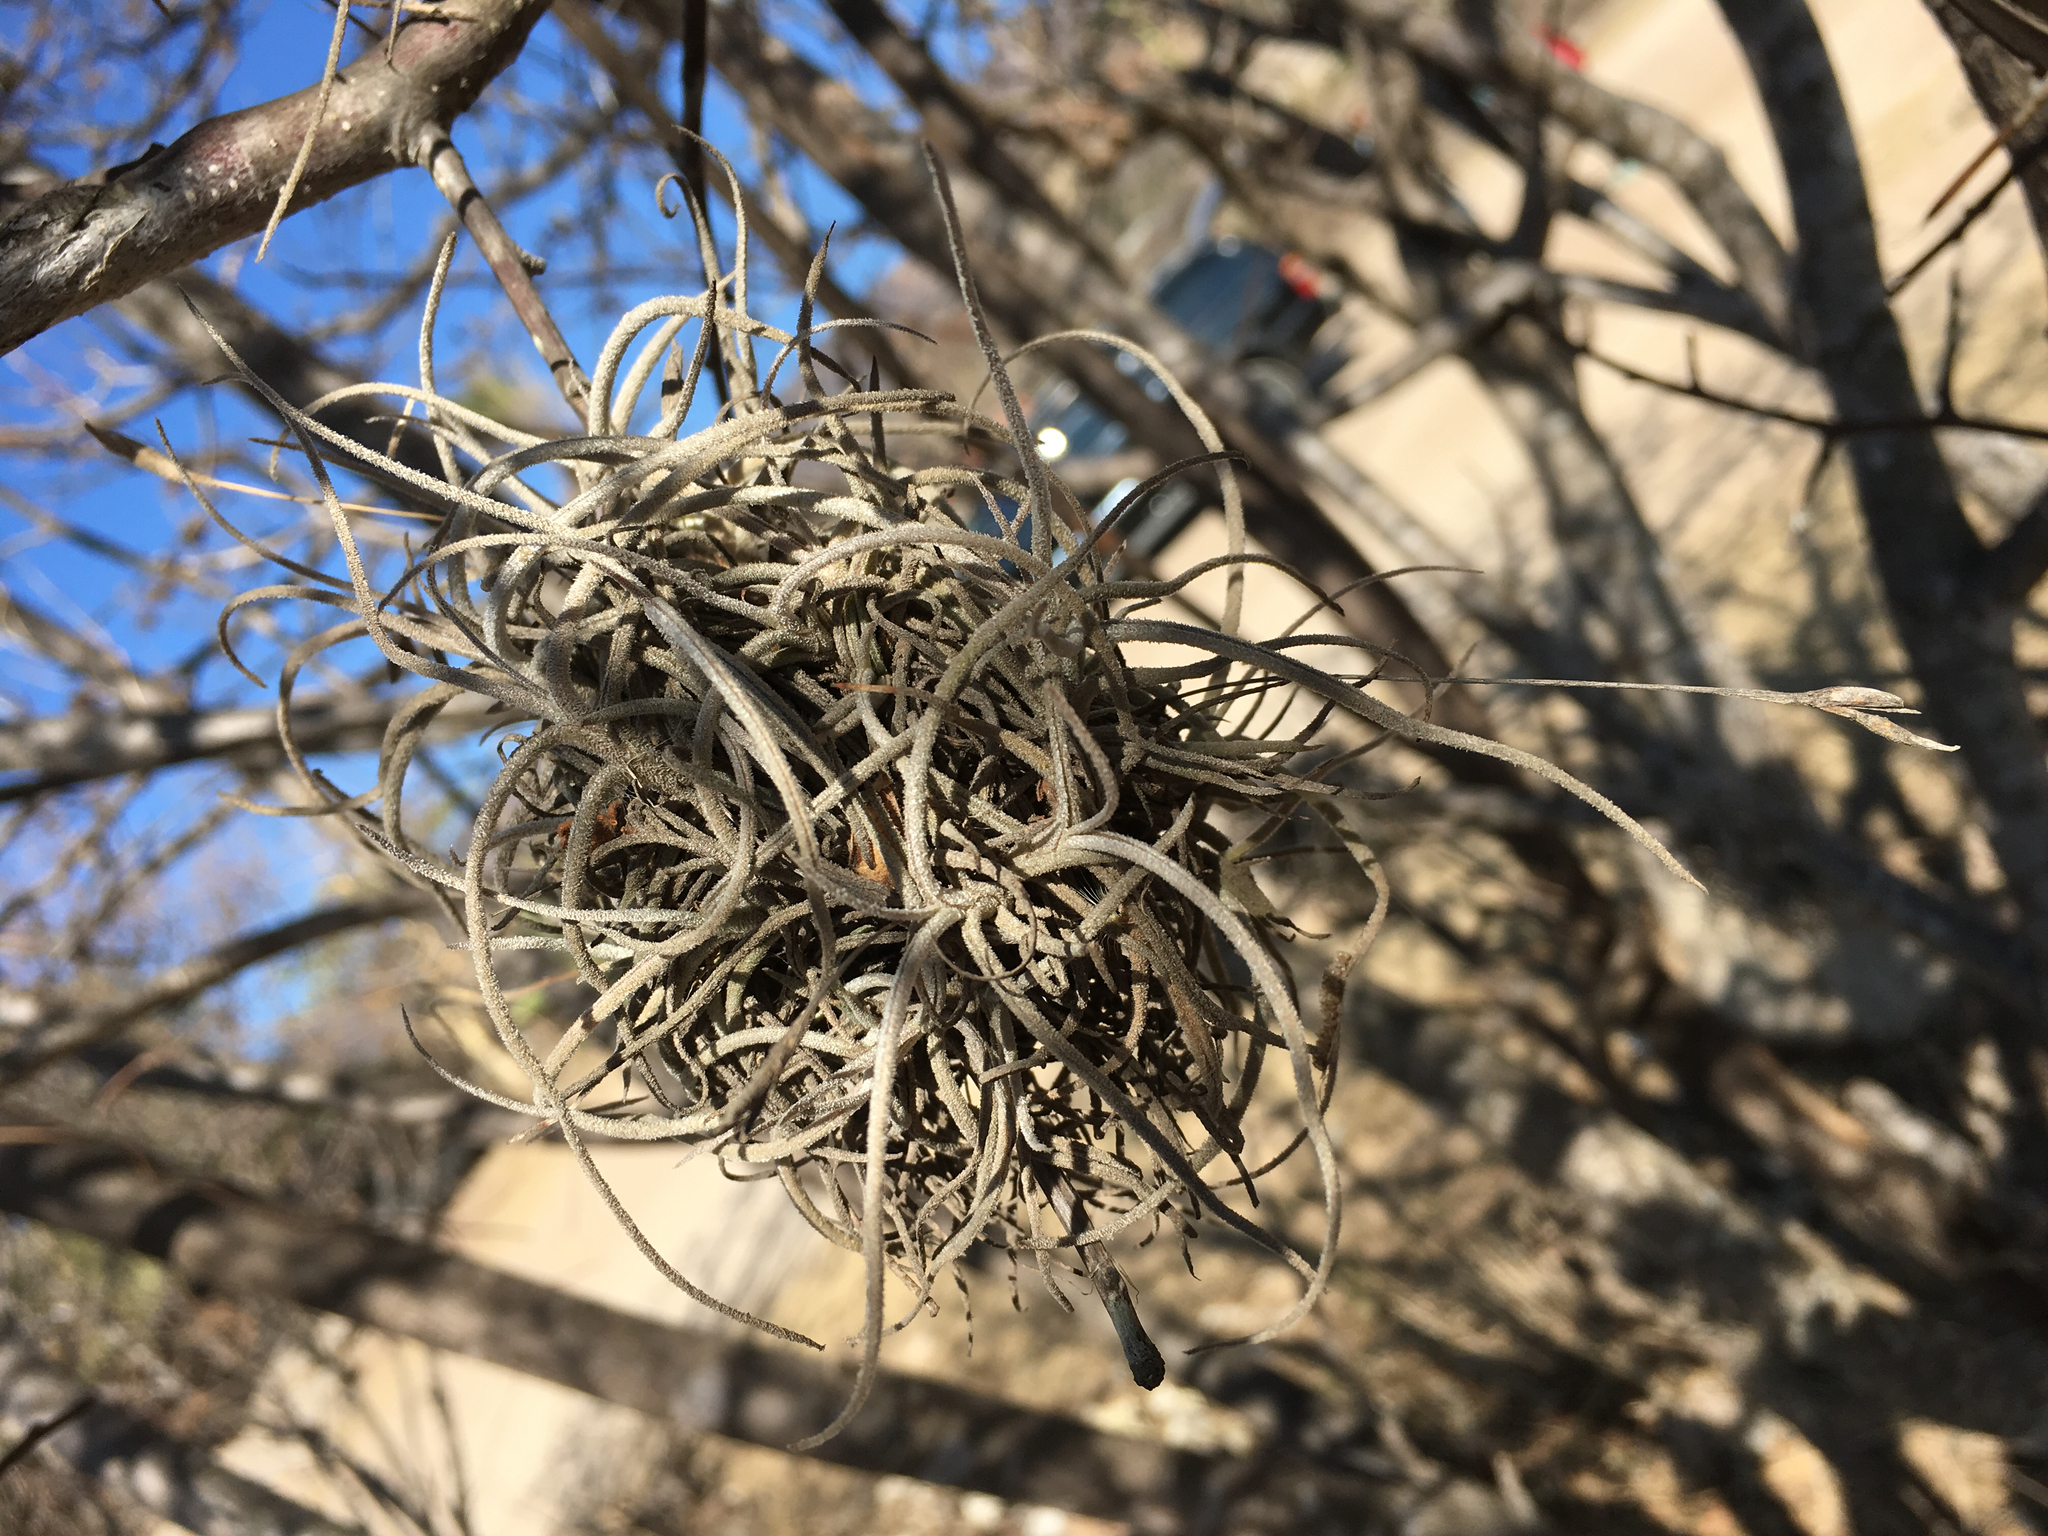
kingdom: Plantae
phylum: Tracheophyta
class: Liliopsida
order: Poales
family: Bromeliaceae
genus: Tillandsia
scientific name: Tillandsia recurvata
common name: Small ballmoss
